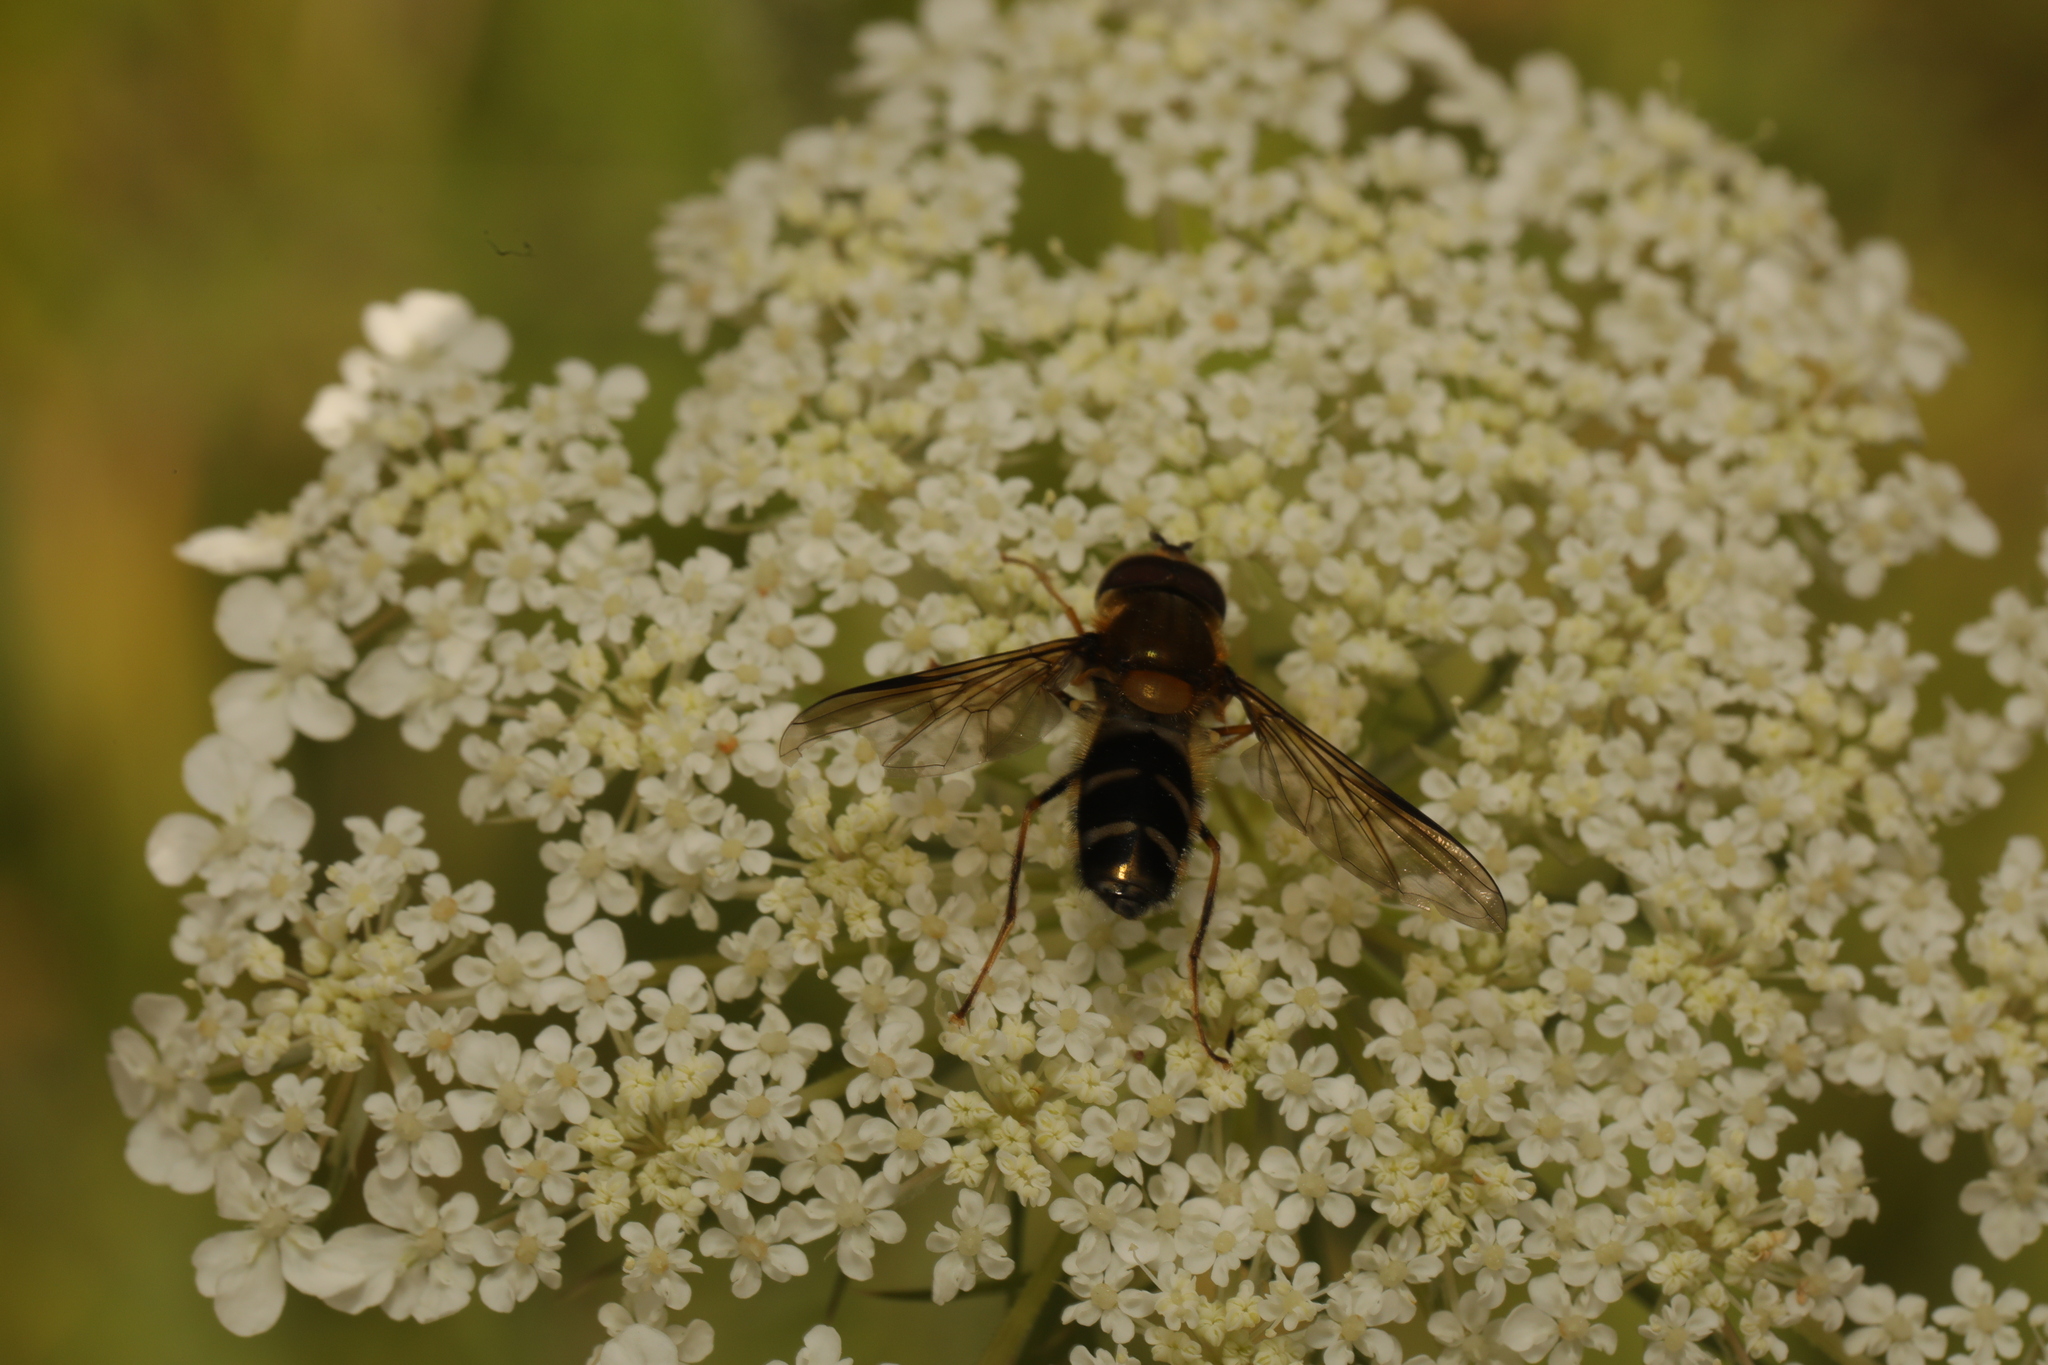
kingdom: Animalia
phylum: Arthropoda
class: Insecta
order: Diptera
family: Syrphidae
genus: Leucozona
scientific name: Leucozona glaucia
